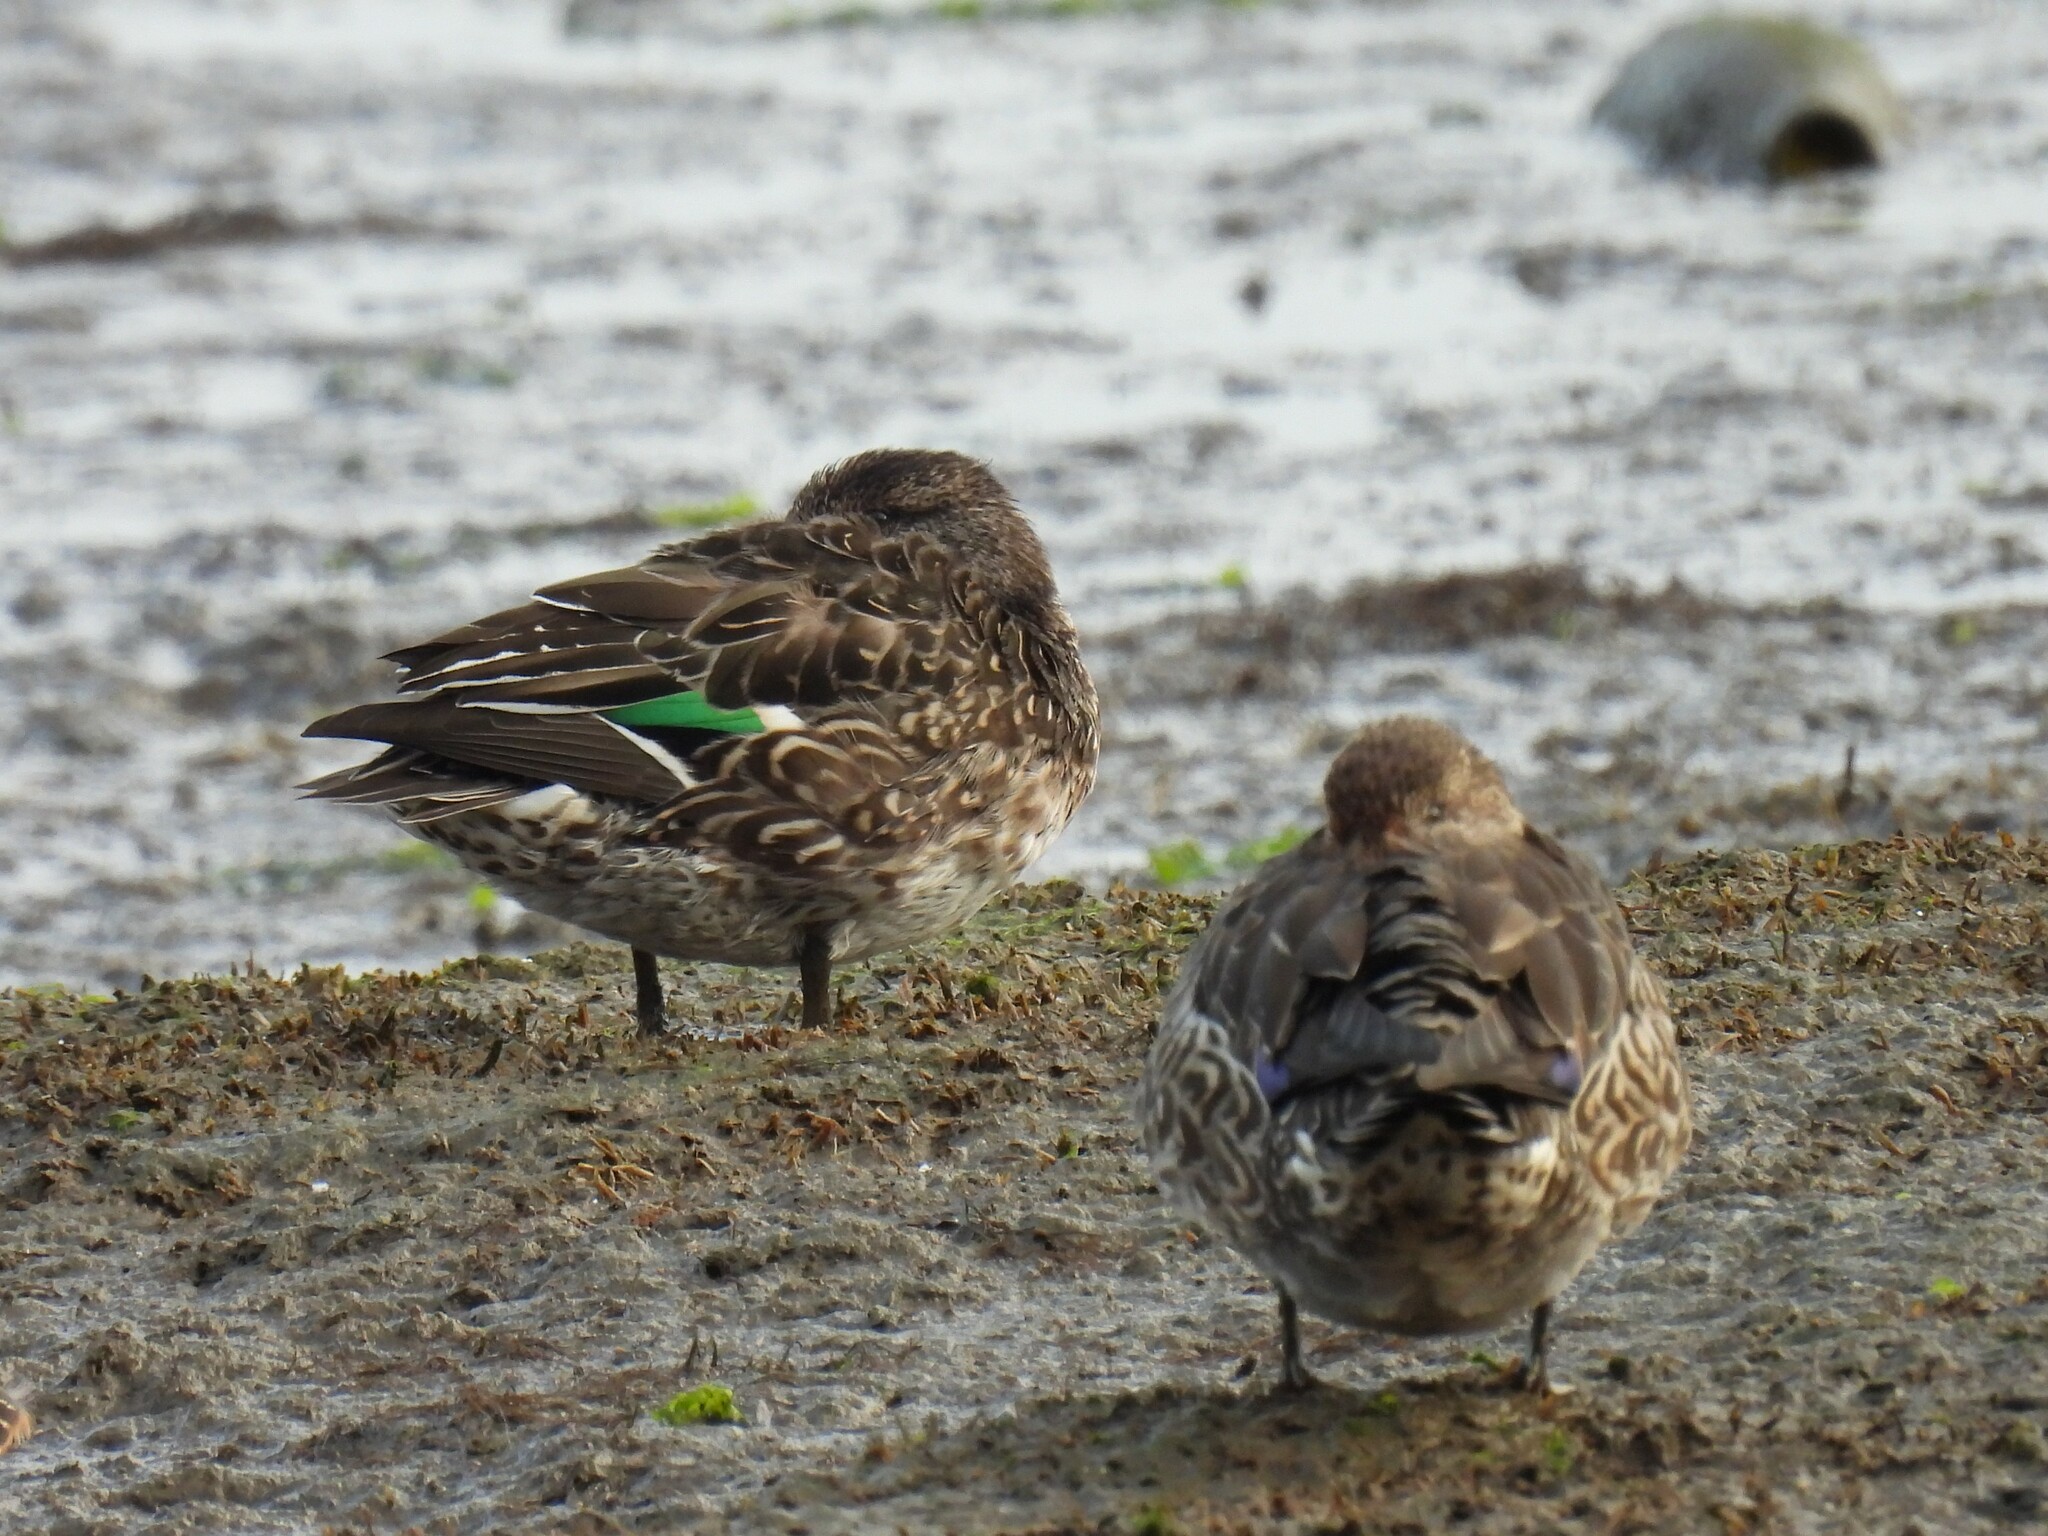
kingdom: Animalia
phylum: Chordata
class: Aves
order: Anseriformes
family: Anatidae
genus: Anas
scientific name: Anas crecca
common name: Eurasian teal
